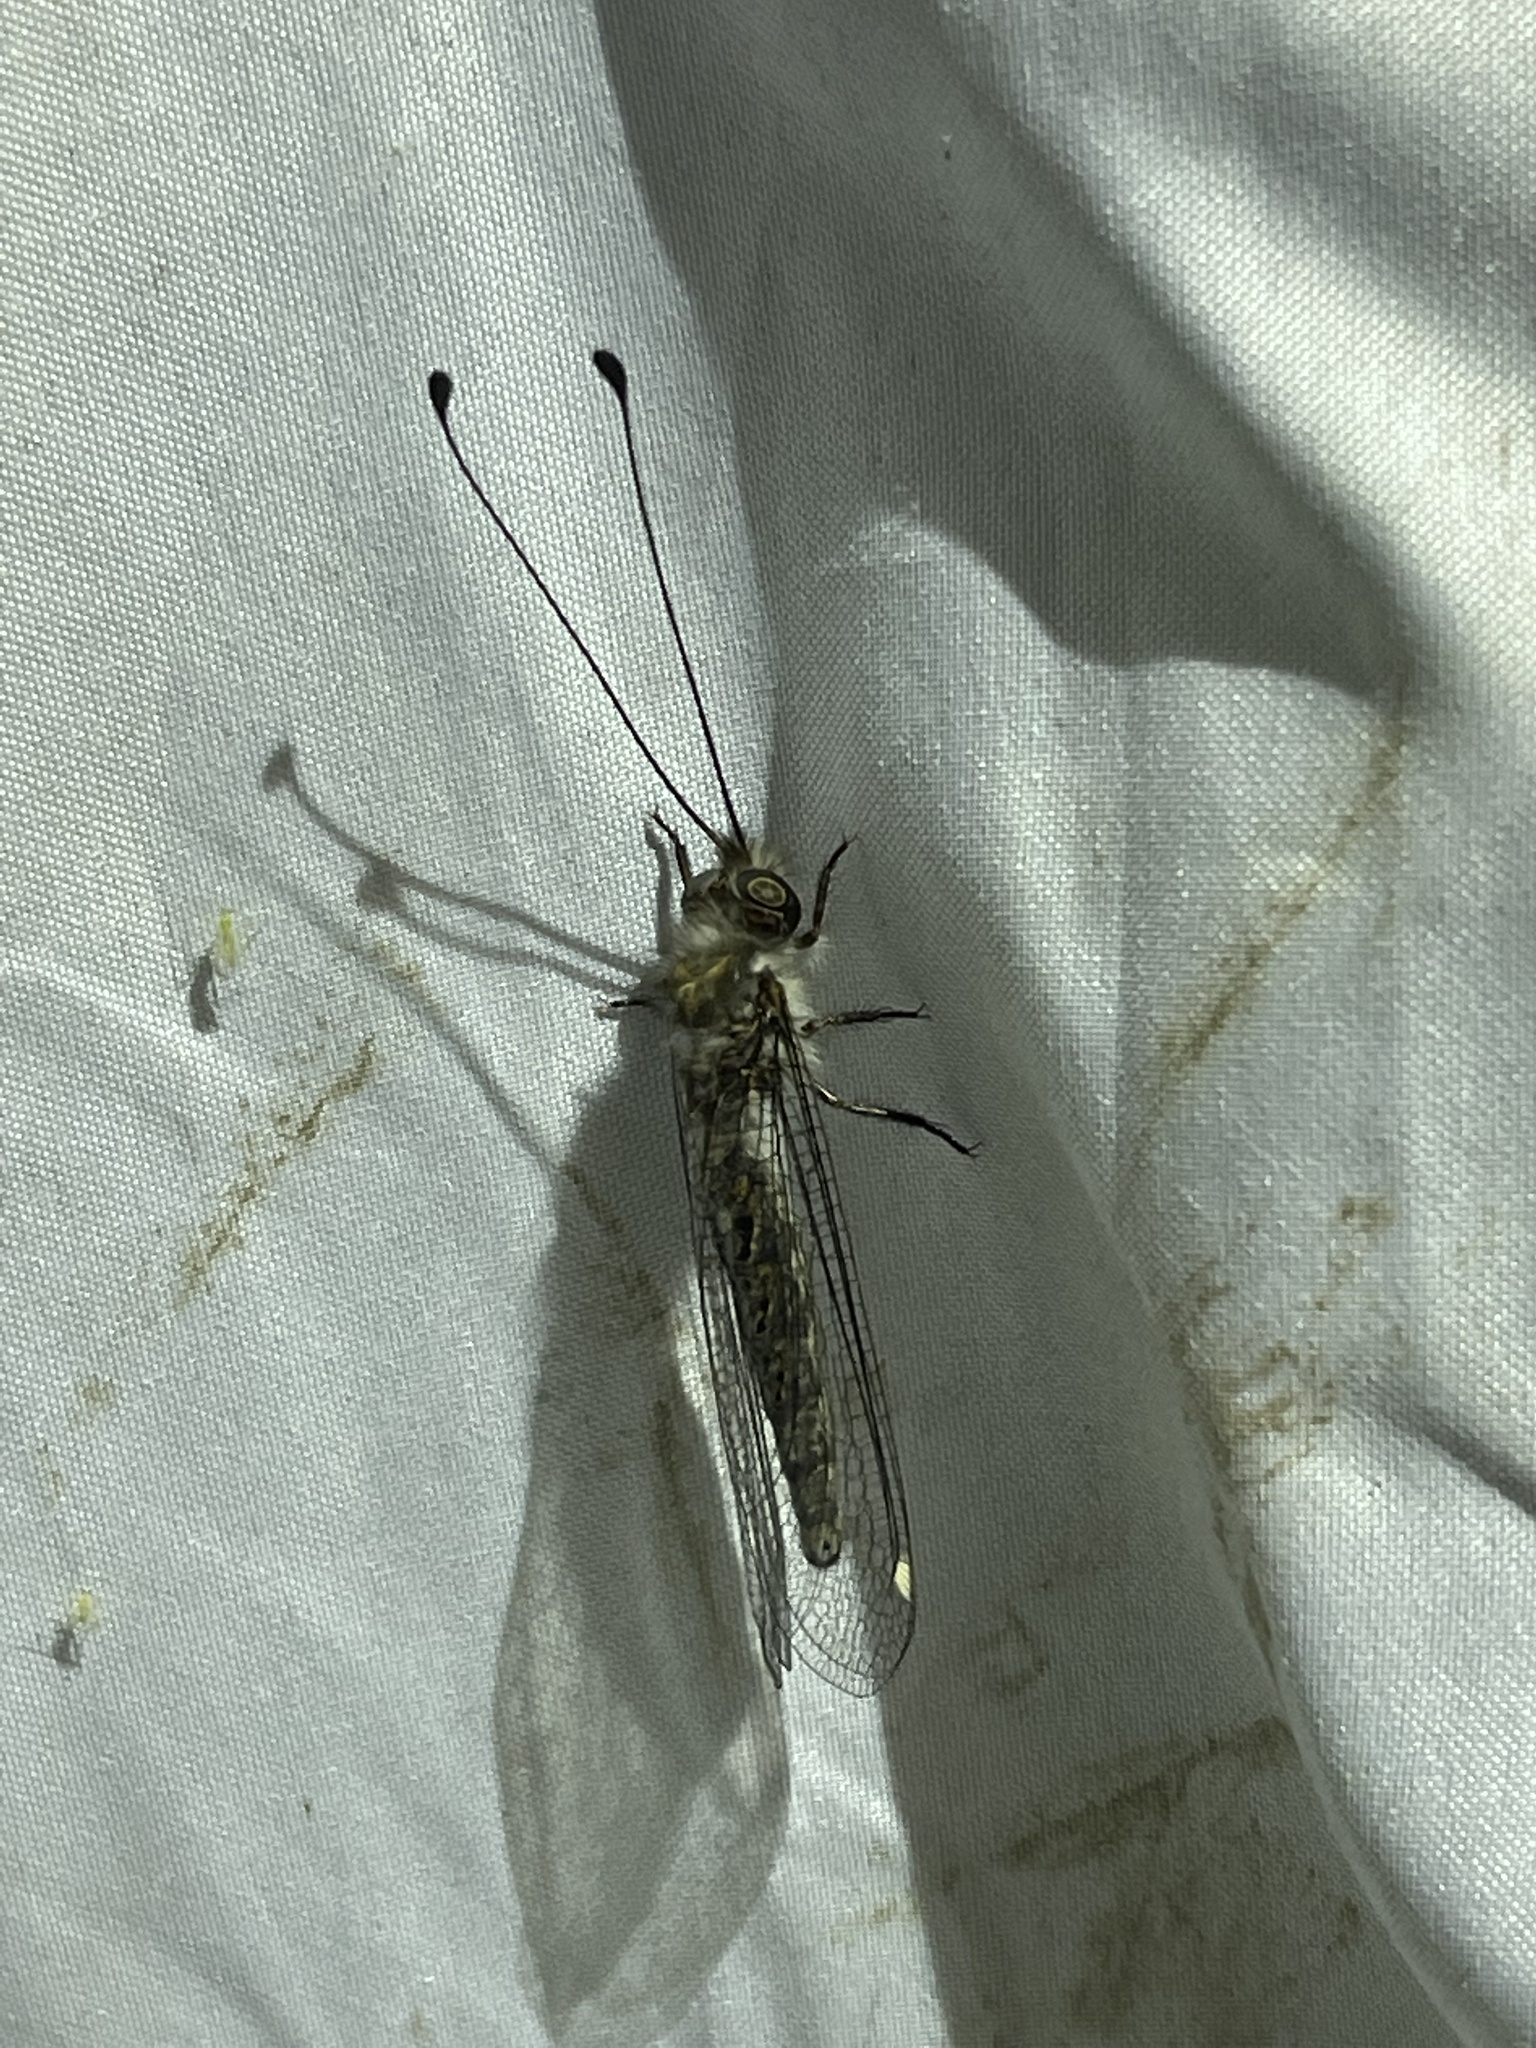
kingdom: Animalia
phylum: Arthropoda
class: Insecta
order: Neuroptera
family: Ascalaphidae
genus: Ululodes
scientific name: Ululodes quadripunctatus
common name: Four-spotted owlfly
